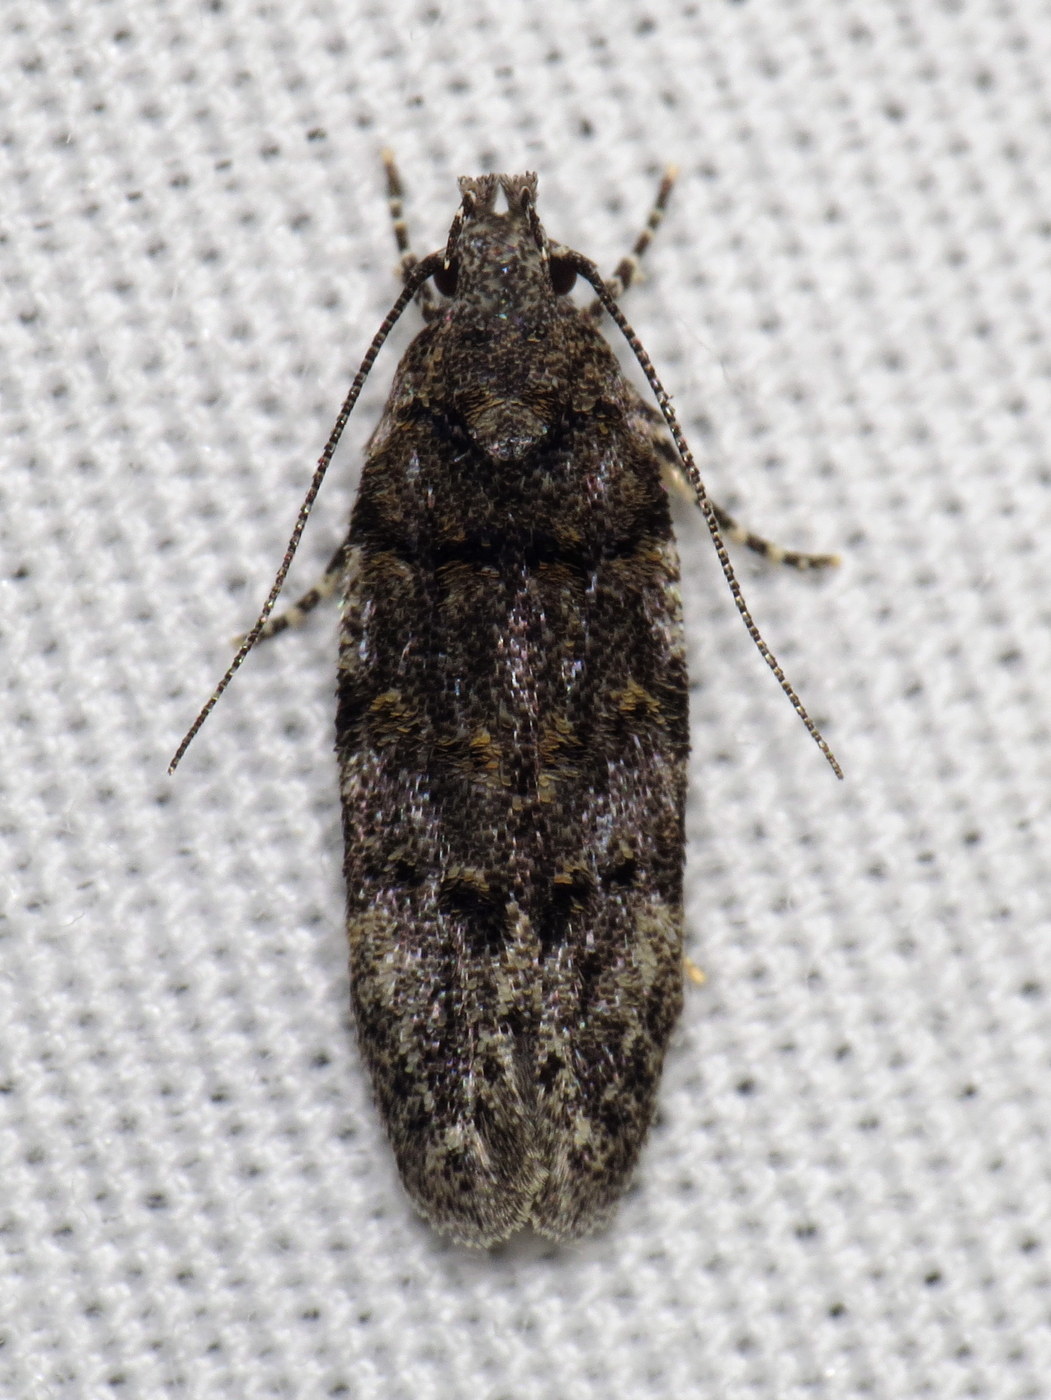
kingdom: Animalia
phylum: Arthropoda
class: Insecta
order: Lepidoptera
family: Gelechiidae
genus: Pubitelphusa
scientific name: Pubitelphusa latifasciella
